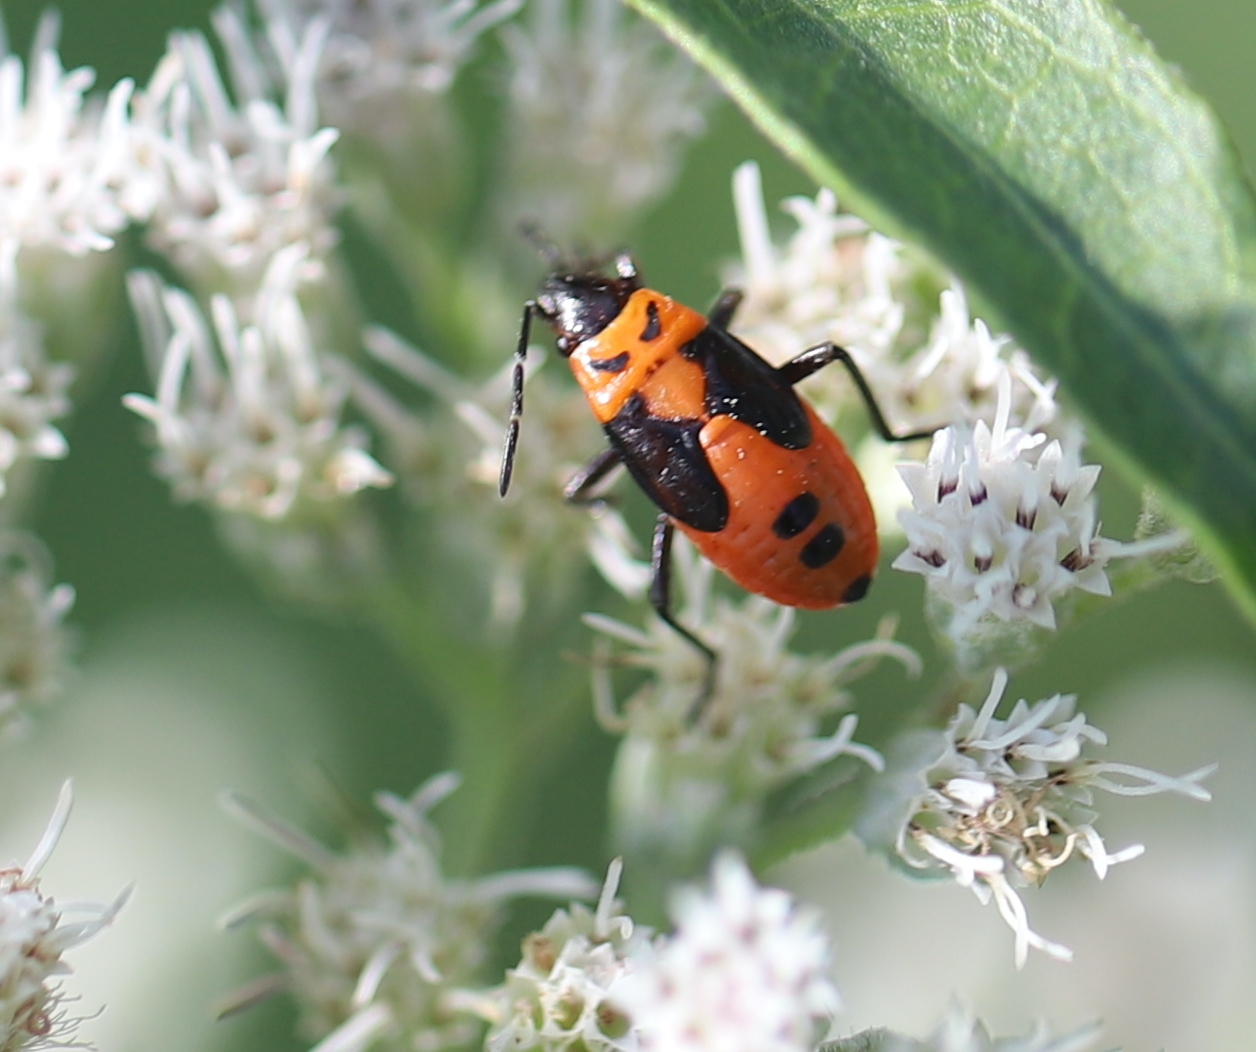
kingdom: Animalia
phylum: Arthropoda
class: Insecta
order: Hemiptera
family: Lygaeidae
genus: Lygaeus
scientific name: Lygaeus turcicus
